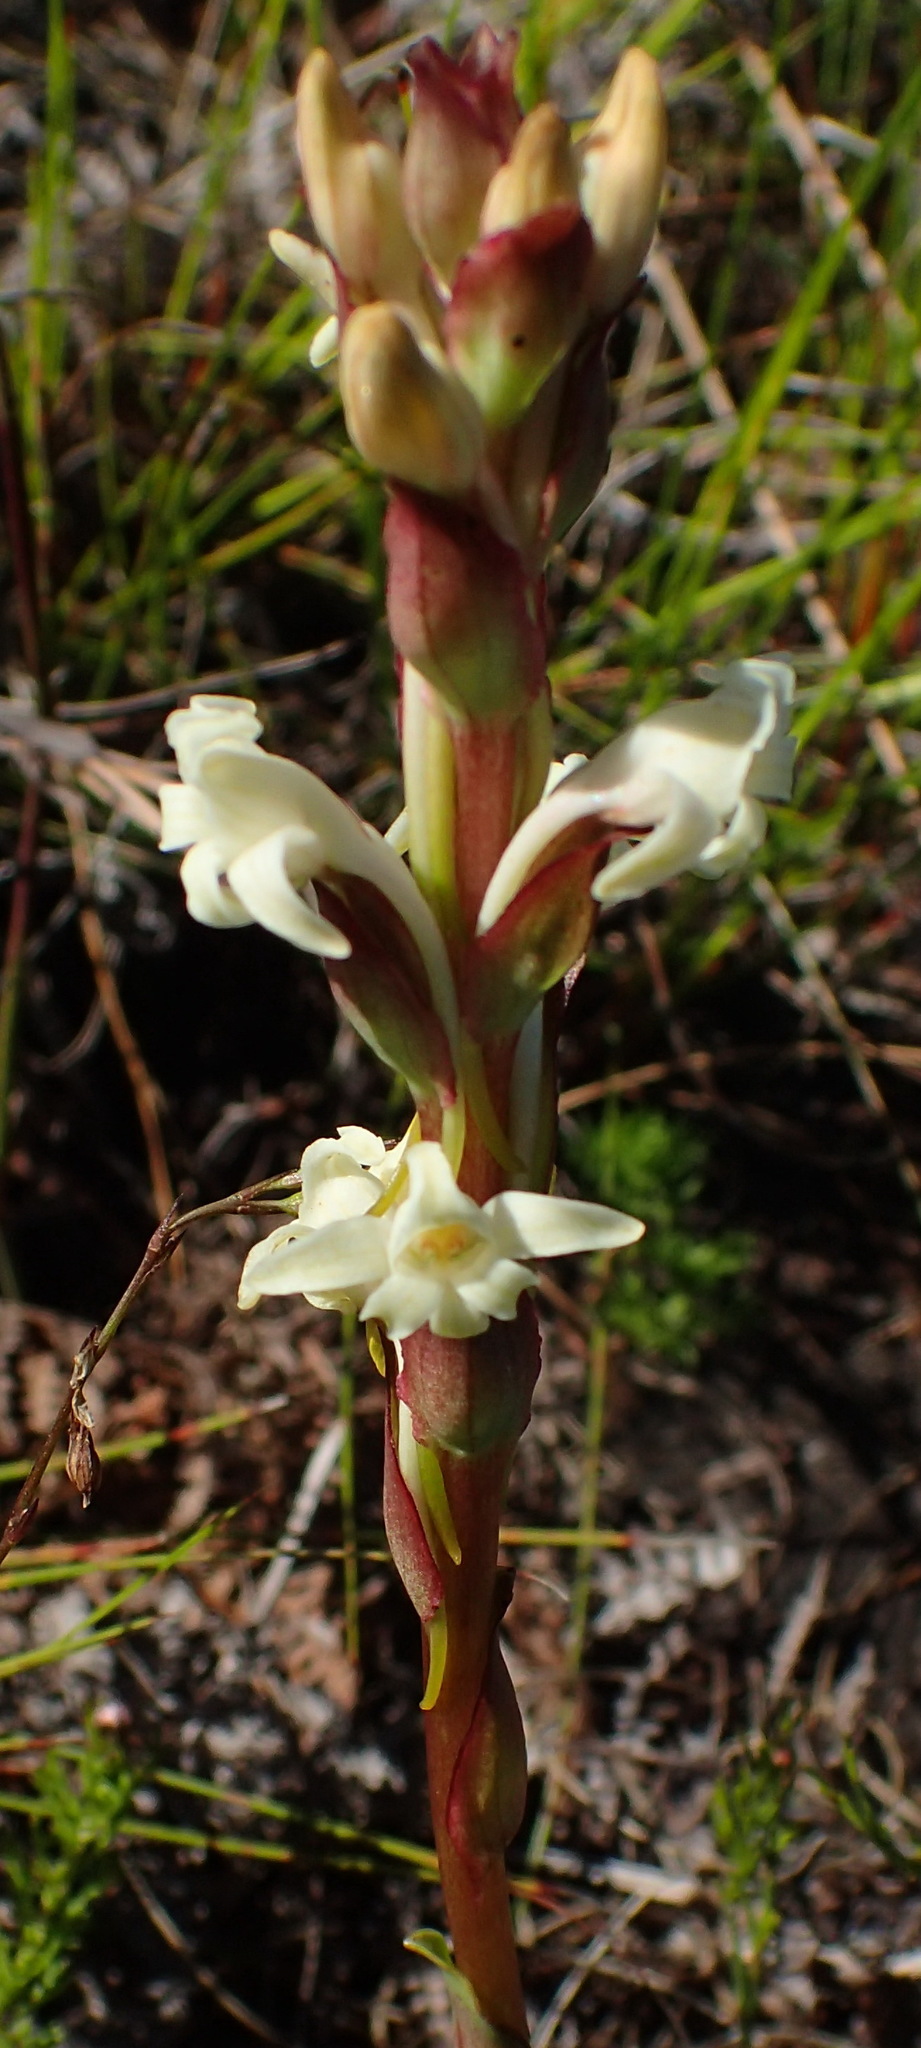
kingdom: Plantae
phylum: Tracheophyta
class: Liliopsida
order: Asparagales
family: Orchidaceae
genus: Satyrium
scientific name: Satyrium stenopetalum
